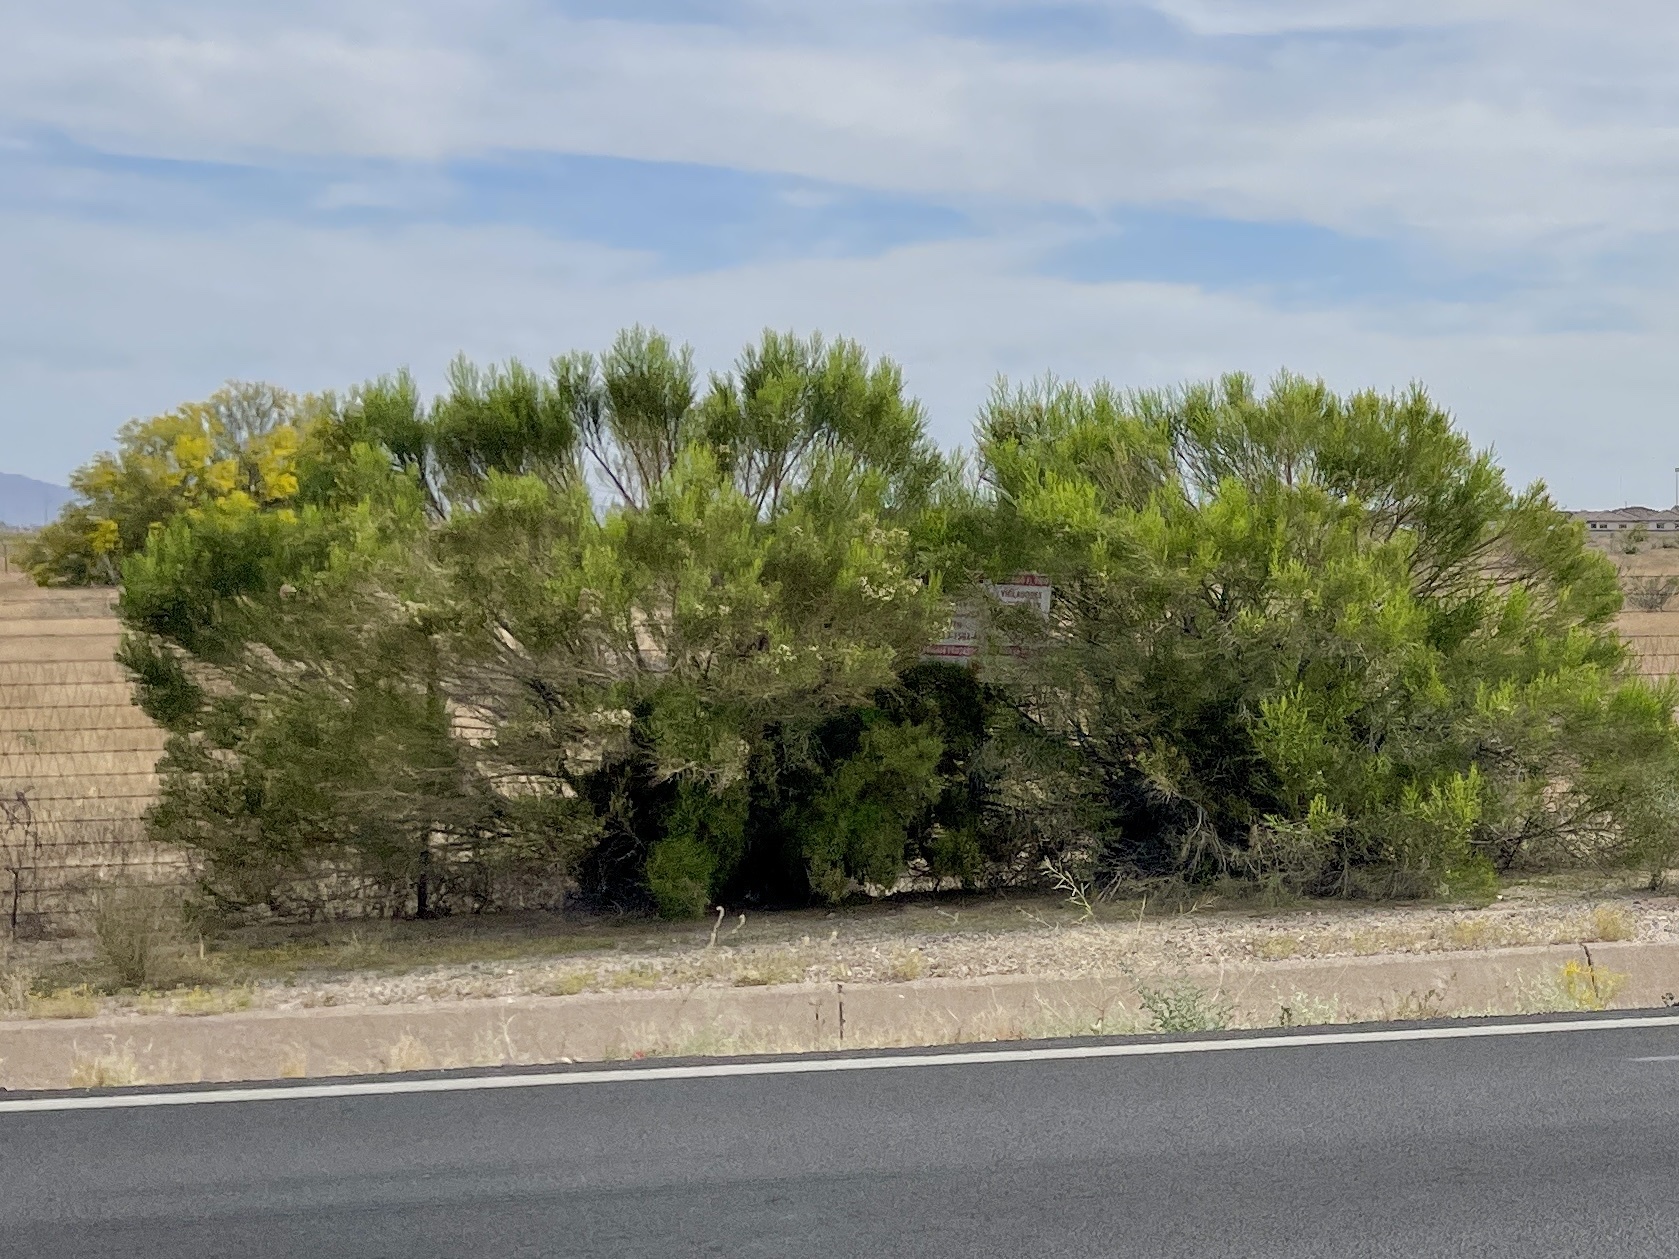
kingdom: Plantae
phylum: Tracheophyta
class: Magnoliopsida
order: Asterales
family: Asteraceae
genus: Baccharis
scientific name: Baccharis sarothroides
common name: Desert-broom
